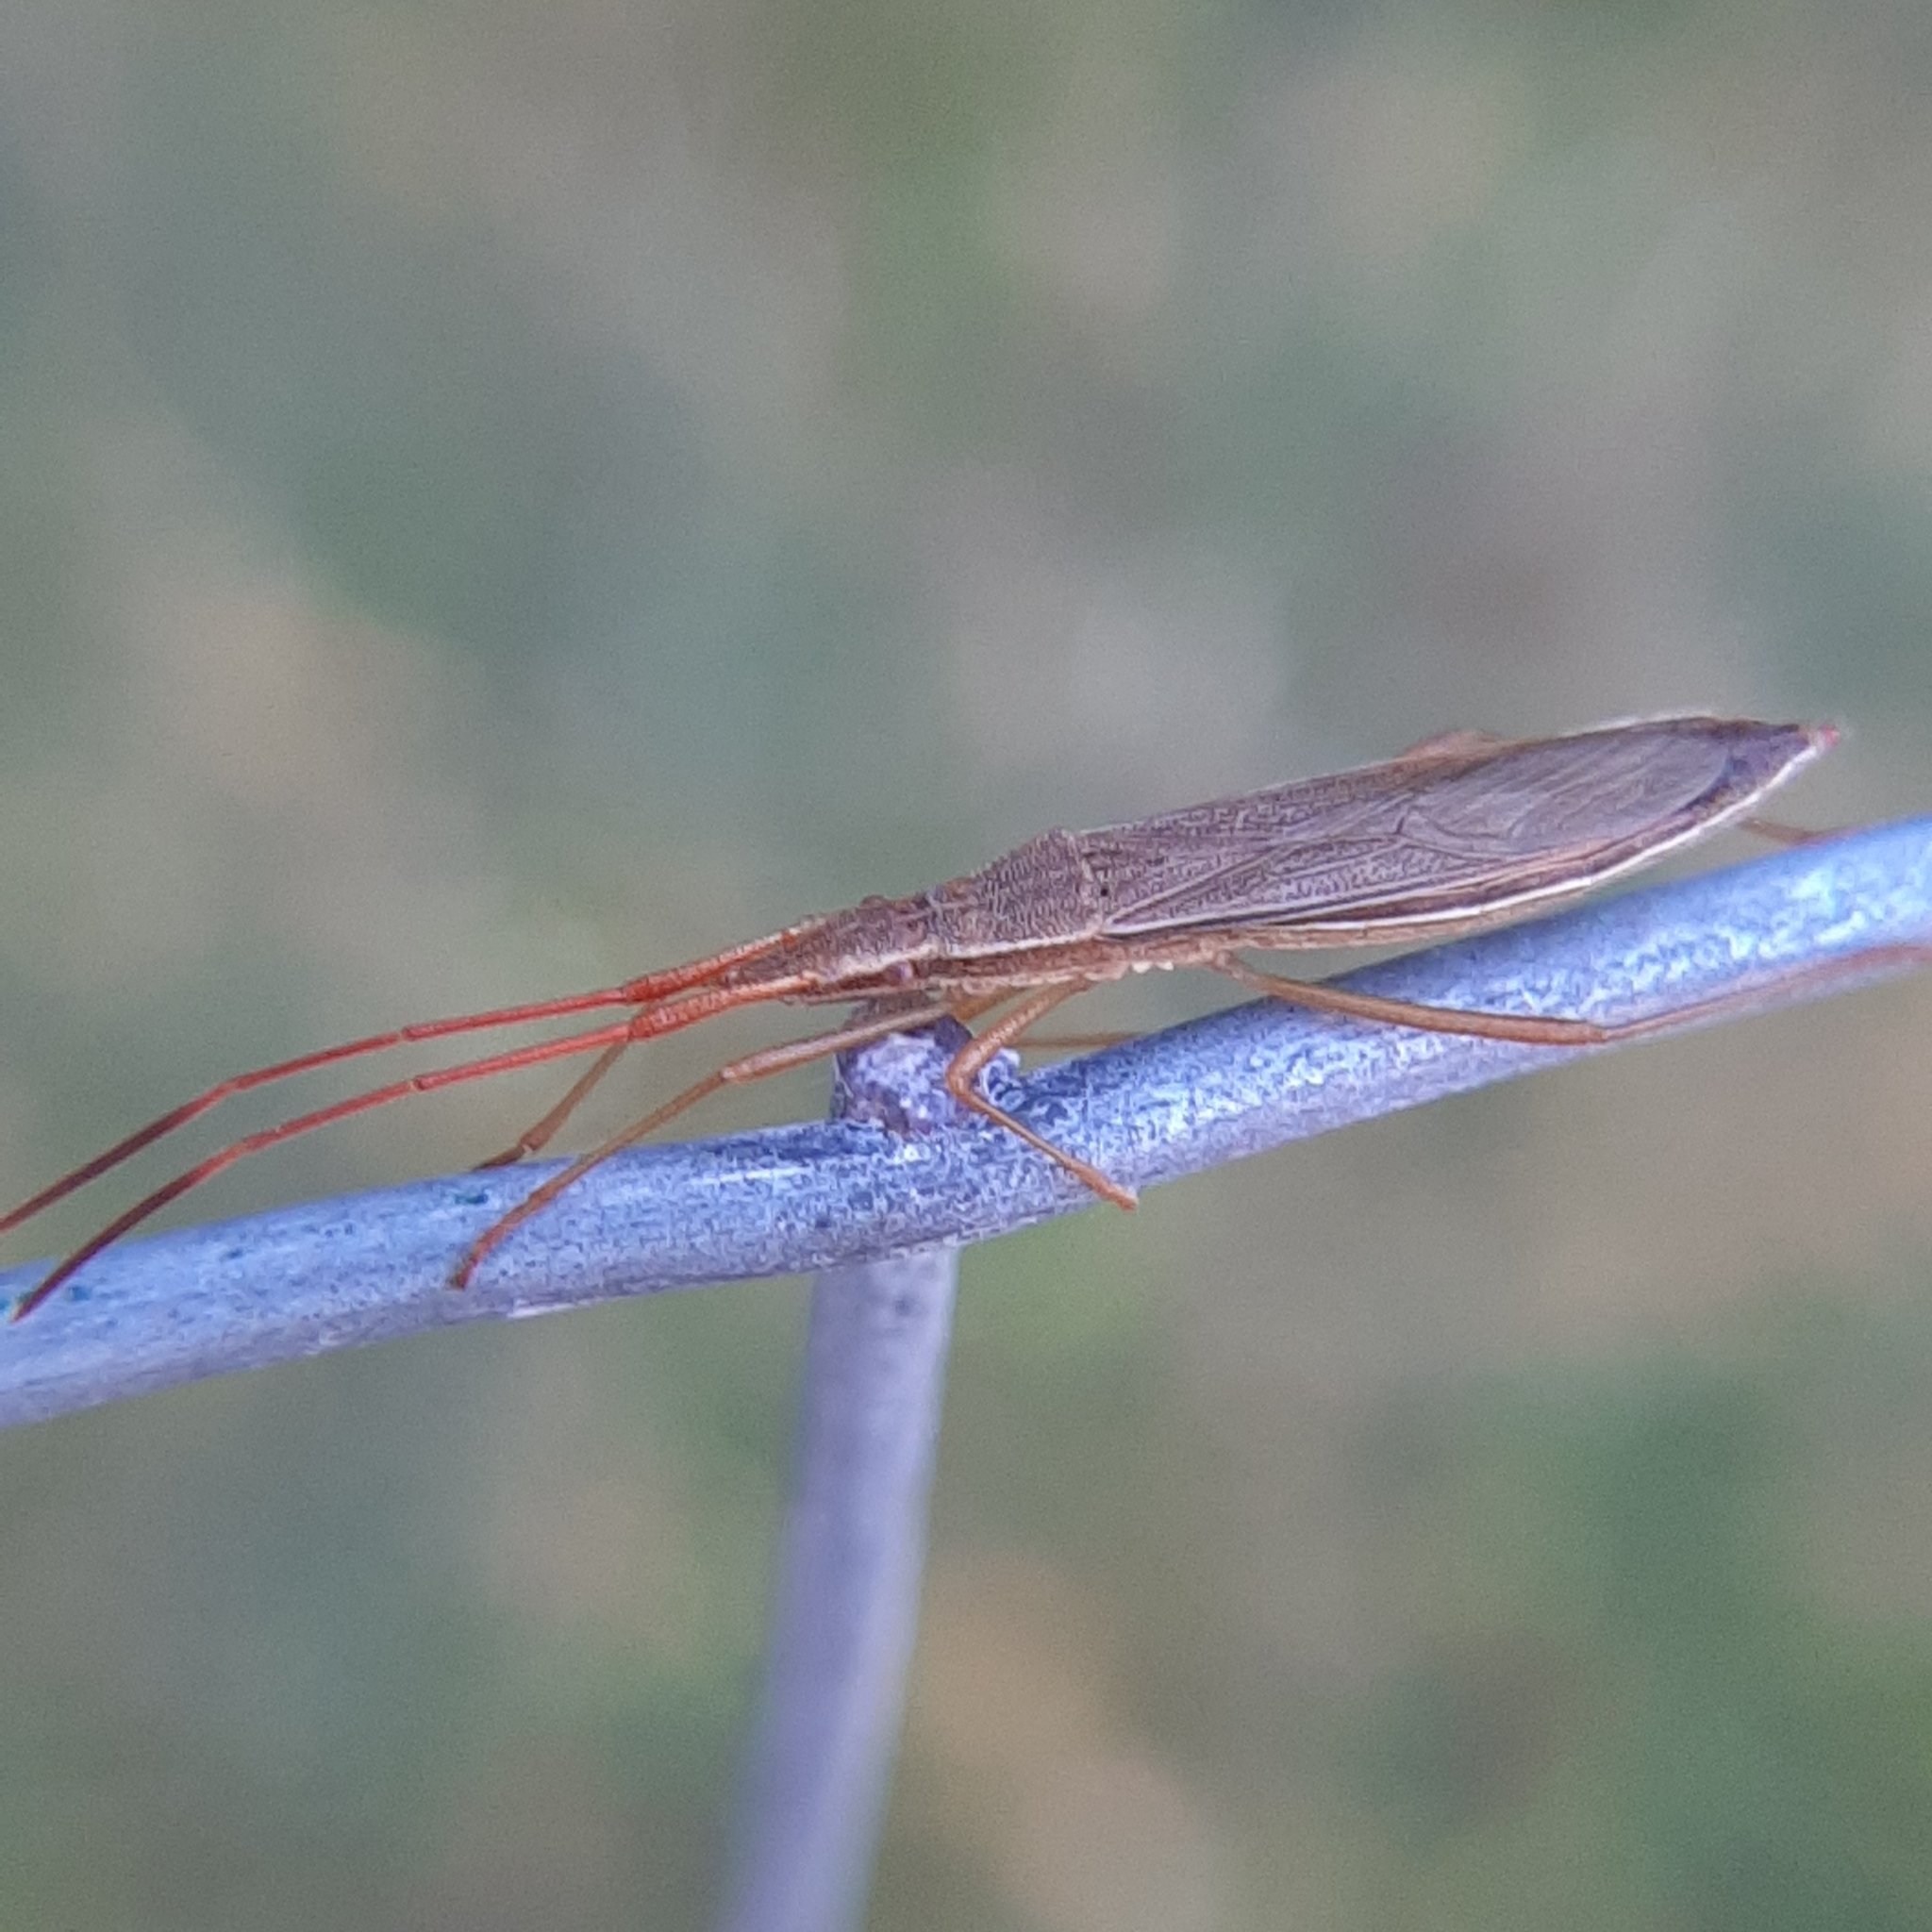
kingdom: Animalia
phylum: Arthropoda
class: Insecta
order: Hemiptera
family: Alydidae
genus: Protenor
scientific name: Protenor belfragei
